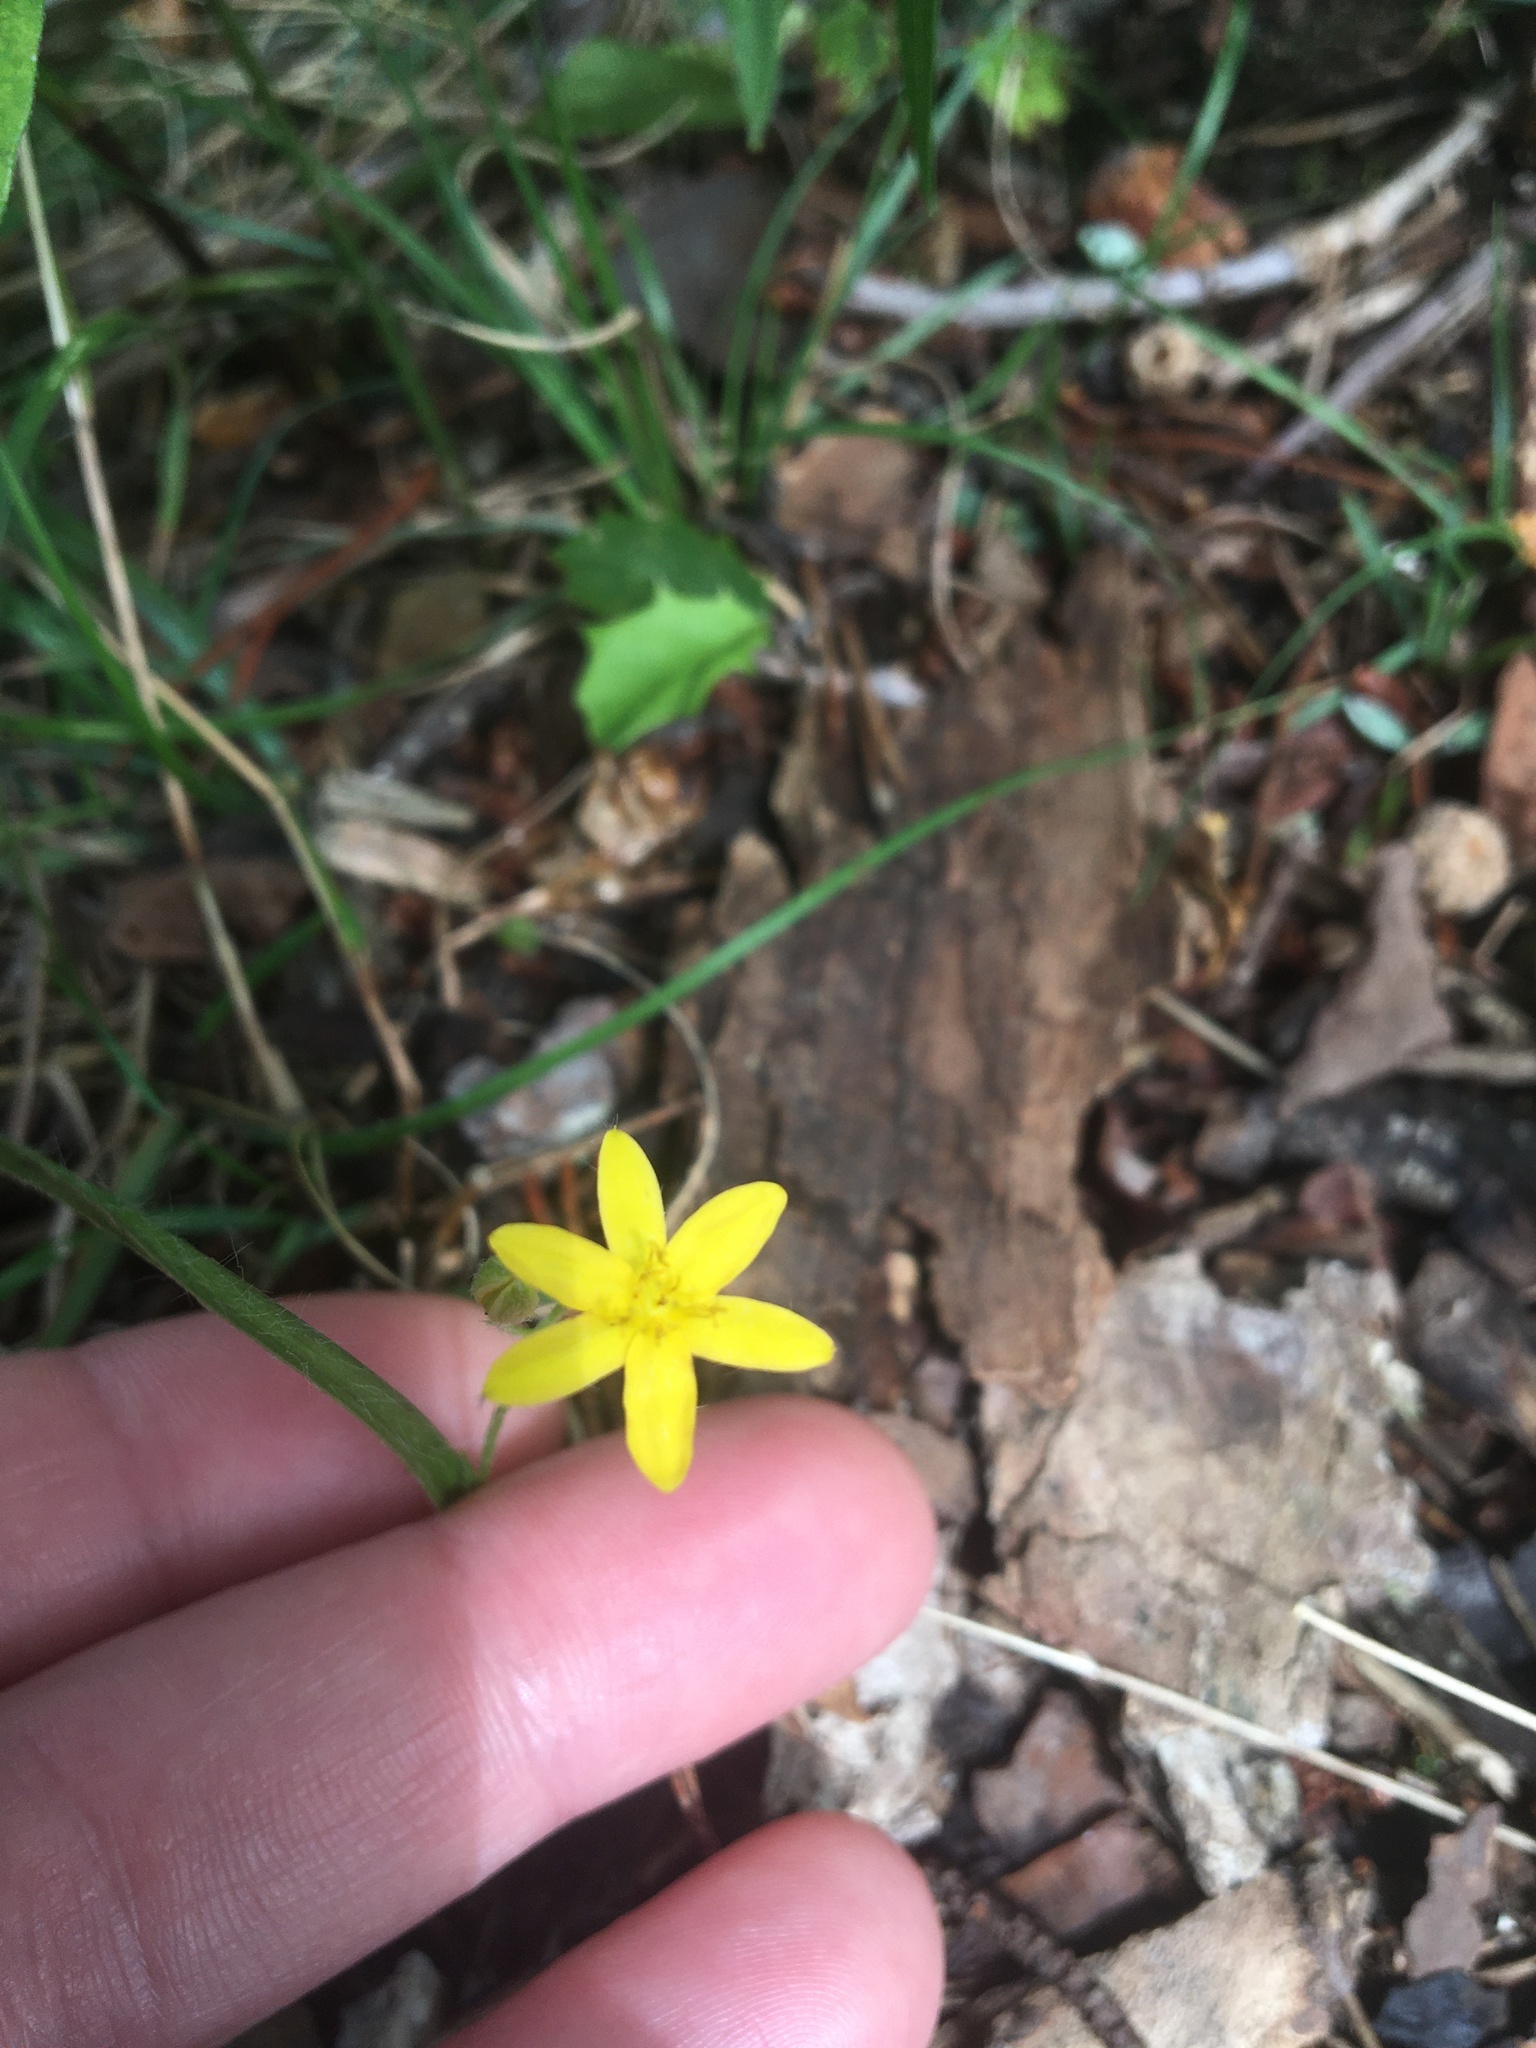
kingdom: Plantae
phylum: Tracheophyta
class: Liliopsida
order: Asparagales
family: Hypoxidaceae
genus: Hypoxis
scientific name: Hypoxis hirsuta
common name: Common goldstar
